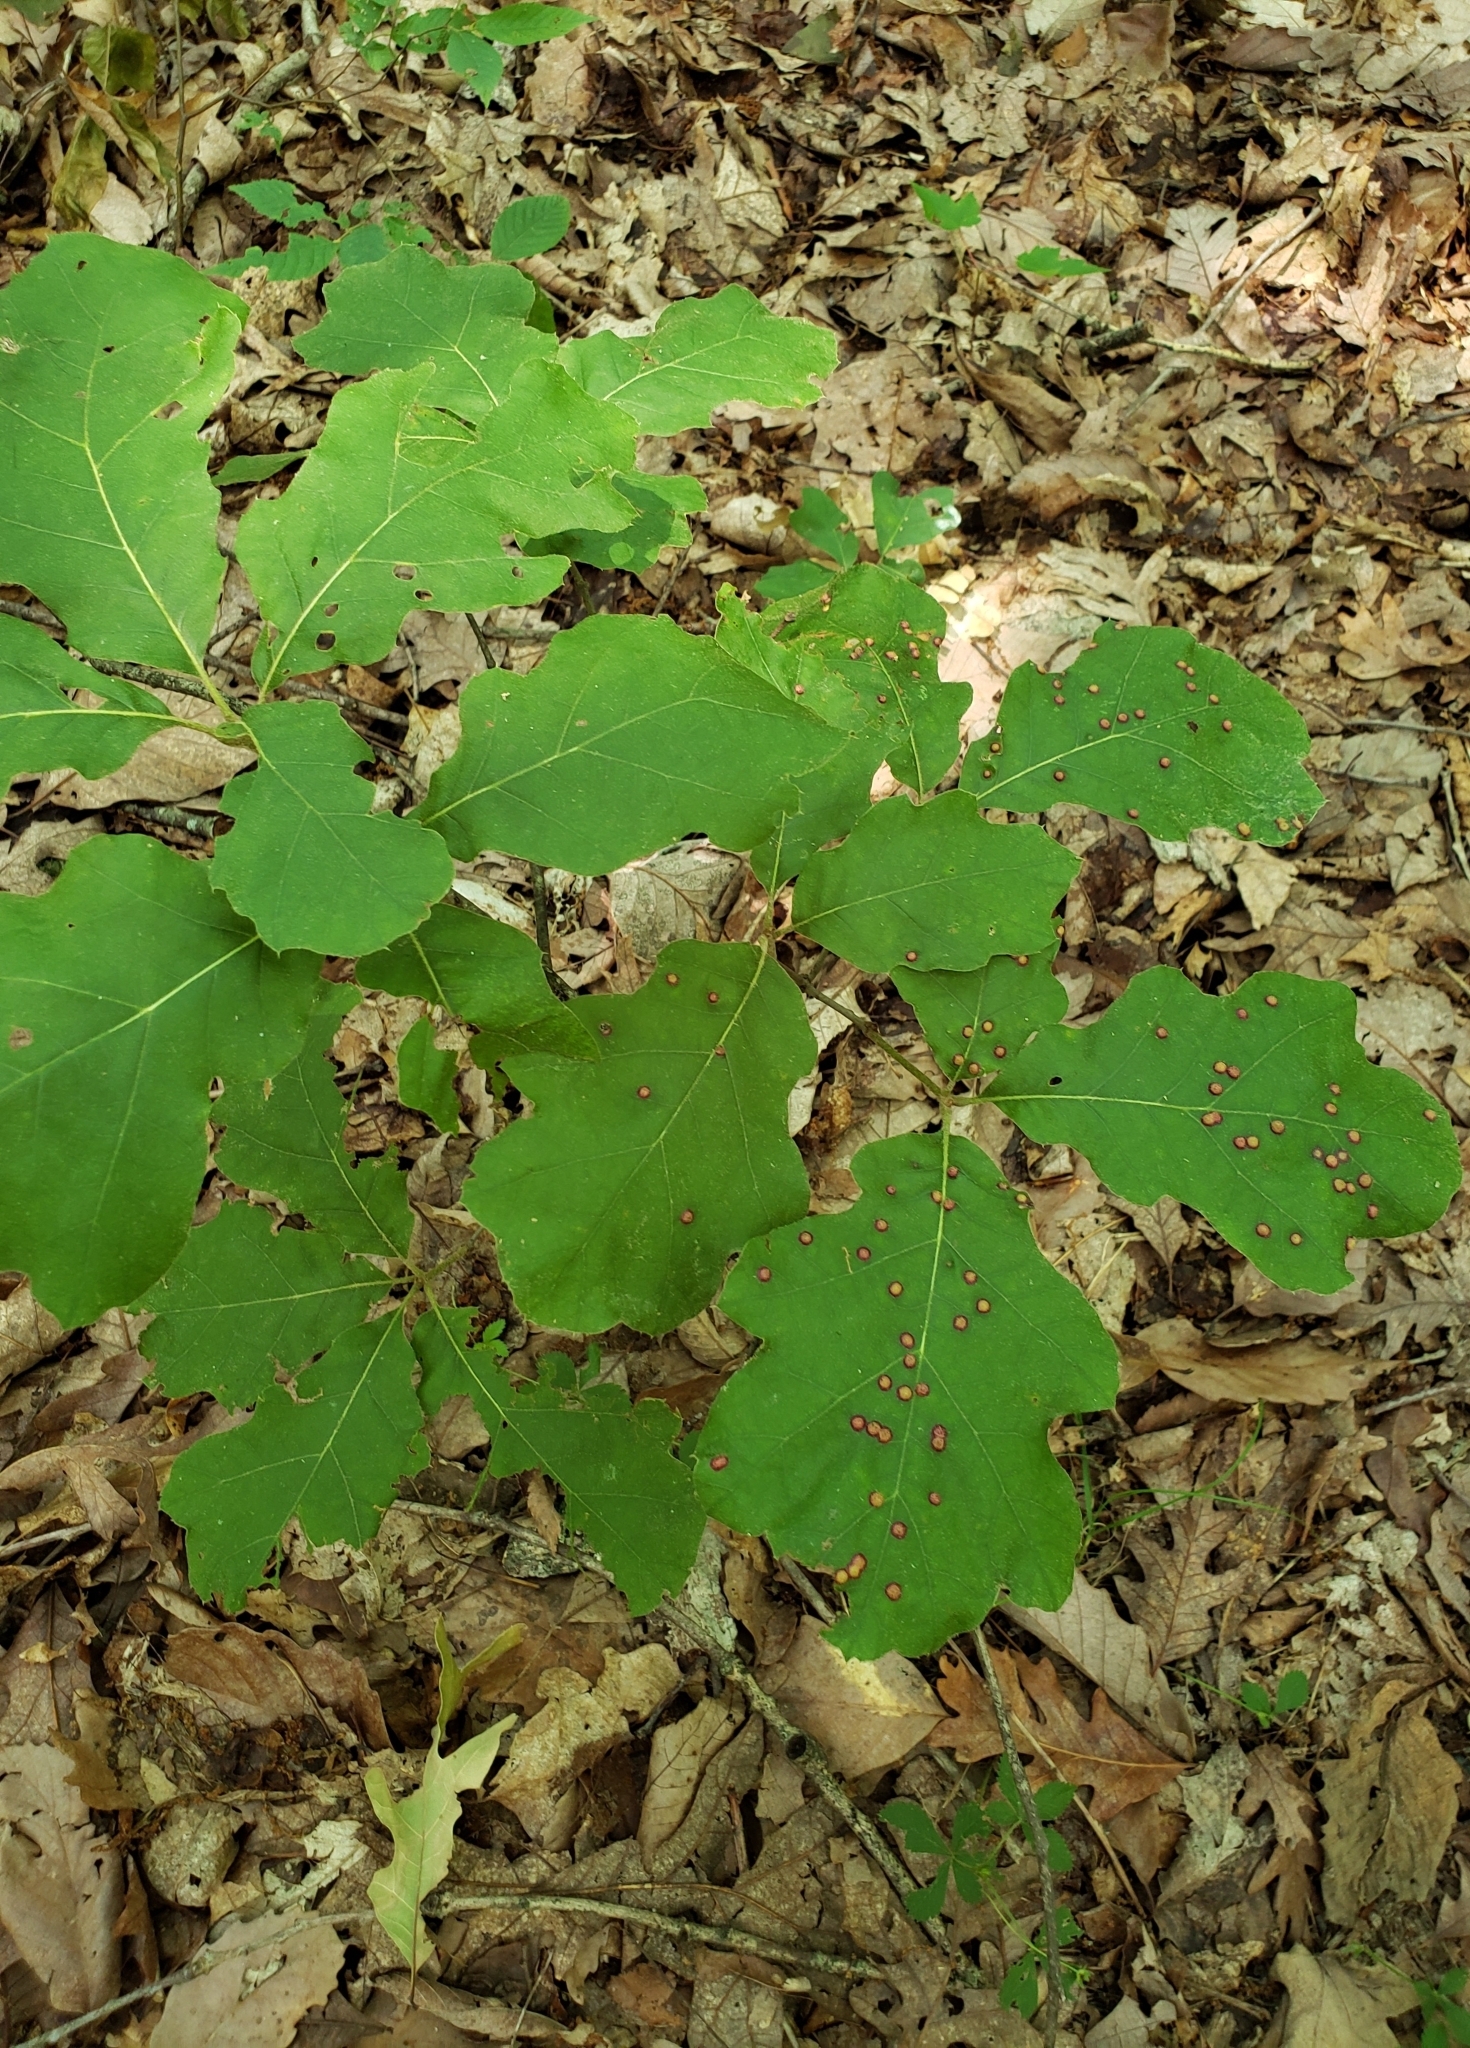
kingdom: Animalia
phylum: Arthropoda
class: Insecta
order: Diptera
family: Cecidomyiidae
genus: Polystepha
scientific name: Polystepha pilulae
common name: Oak leaf gall midge
